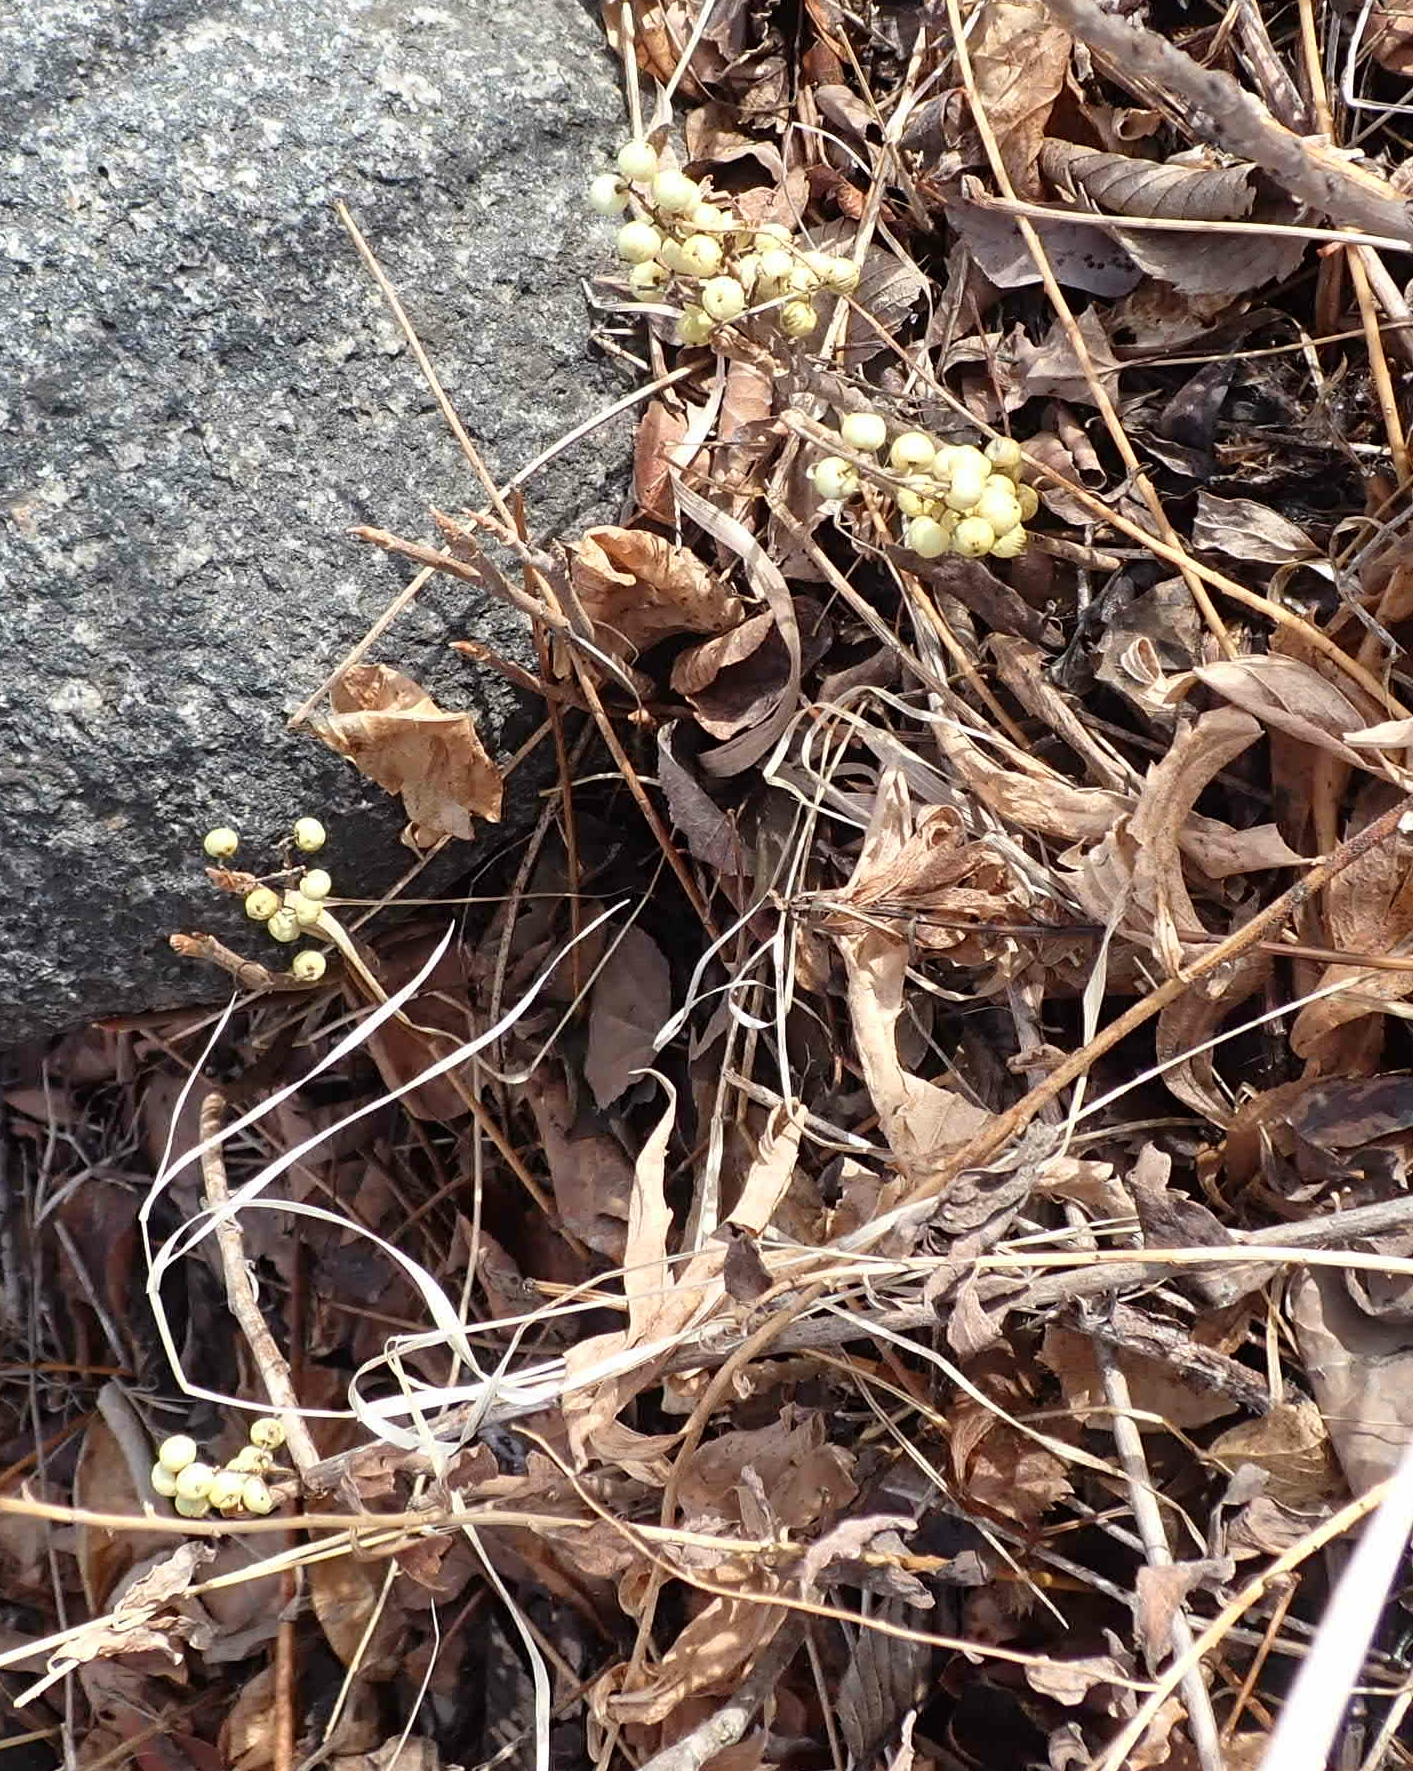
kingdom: Plantae
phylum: Tracheophyta
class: Magnoliopsida
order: Sapindales
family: Anacardiaceae
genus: Toxicodendron
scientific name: Toxicodendron rydbergii
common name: Rydberg's poison-ivy
